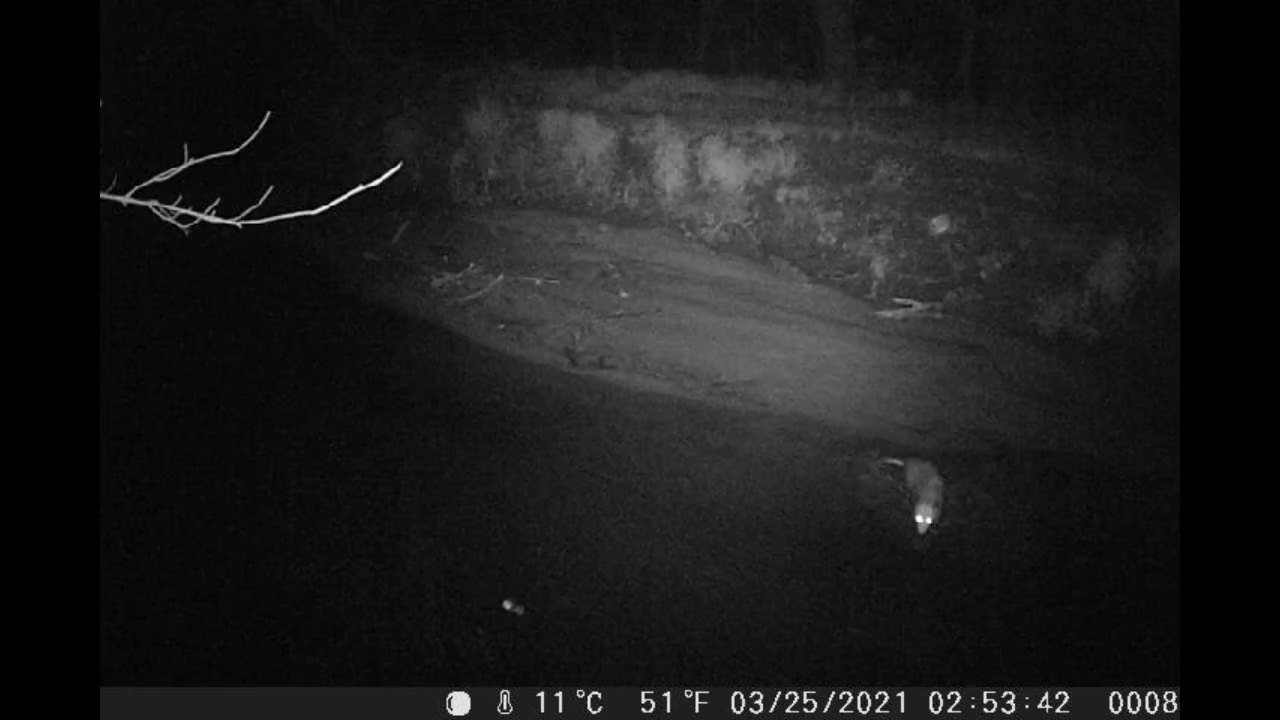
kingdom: Animalia
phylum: Chordata
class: Mammalia
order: Didelphimorphia
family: Didelphidae
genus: Didelphis
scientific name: Didelphis virginiana
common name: Virginia opossum
